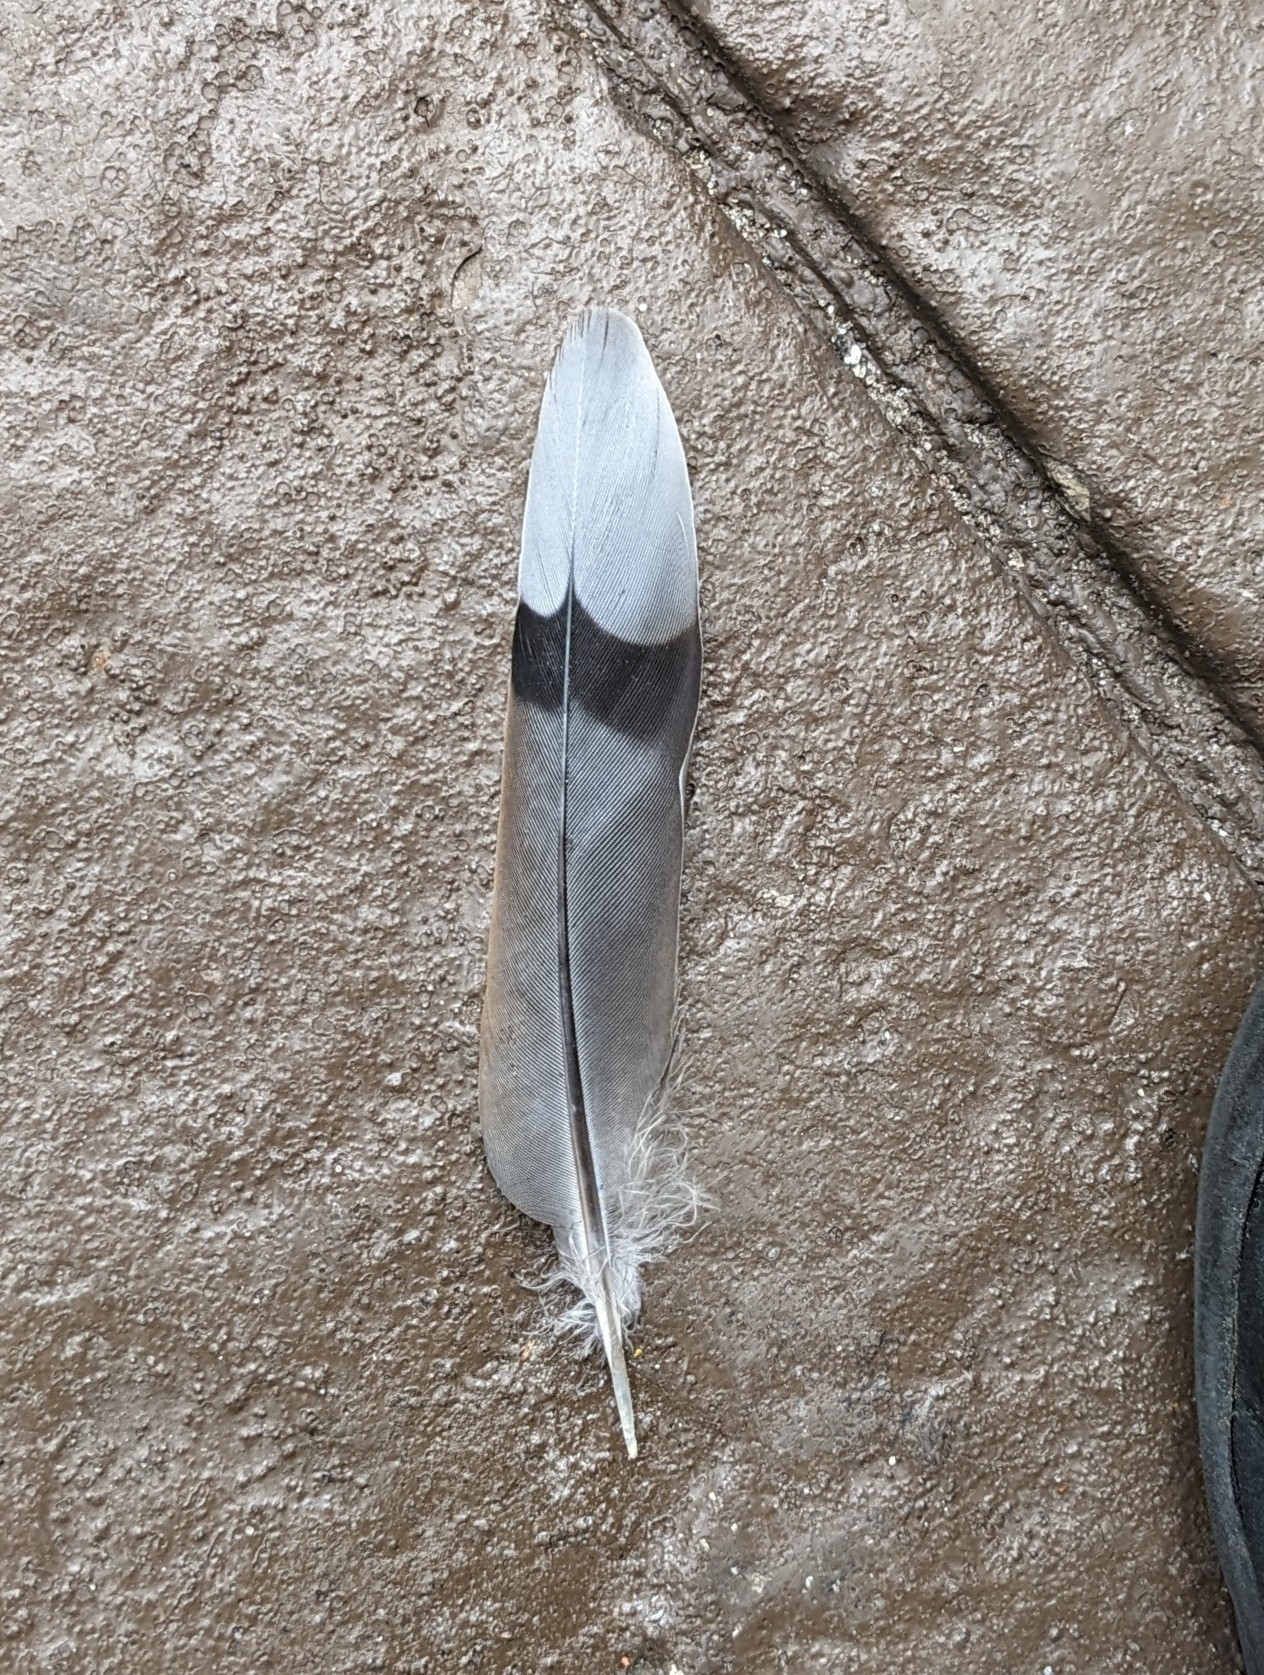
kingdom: Animalia
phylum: Chordata
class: Aves
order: Columbiformes
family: Columbidae
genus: Zenaida
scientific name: Zenaida macroura
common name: Mourning dove
